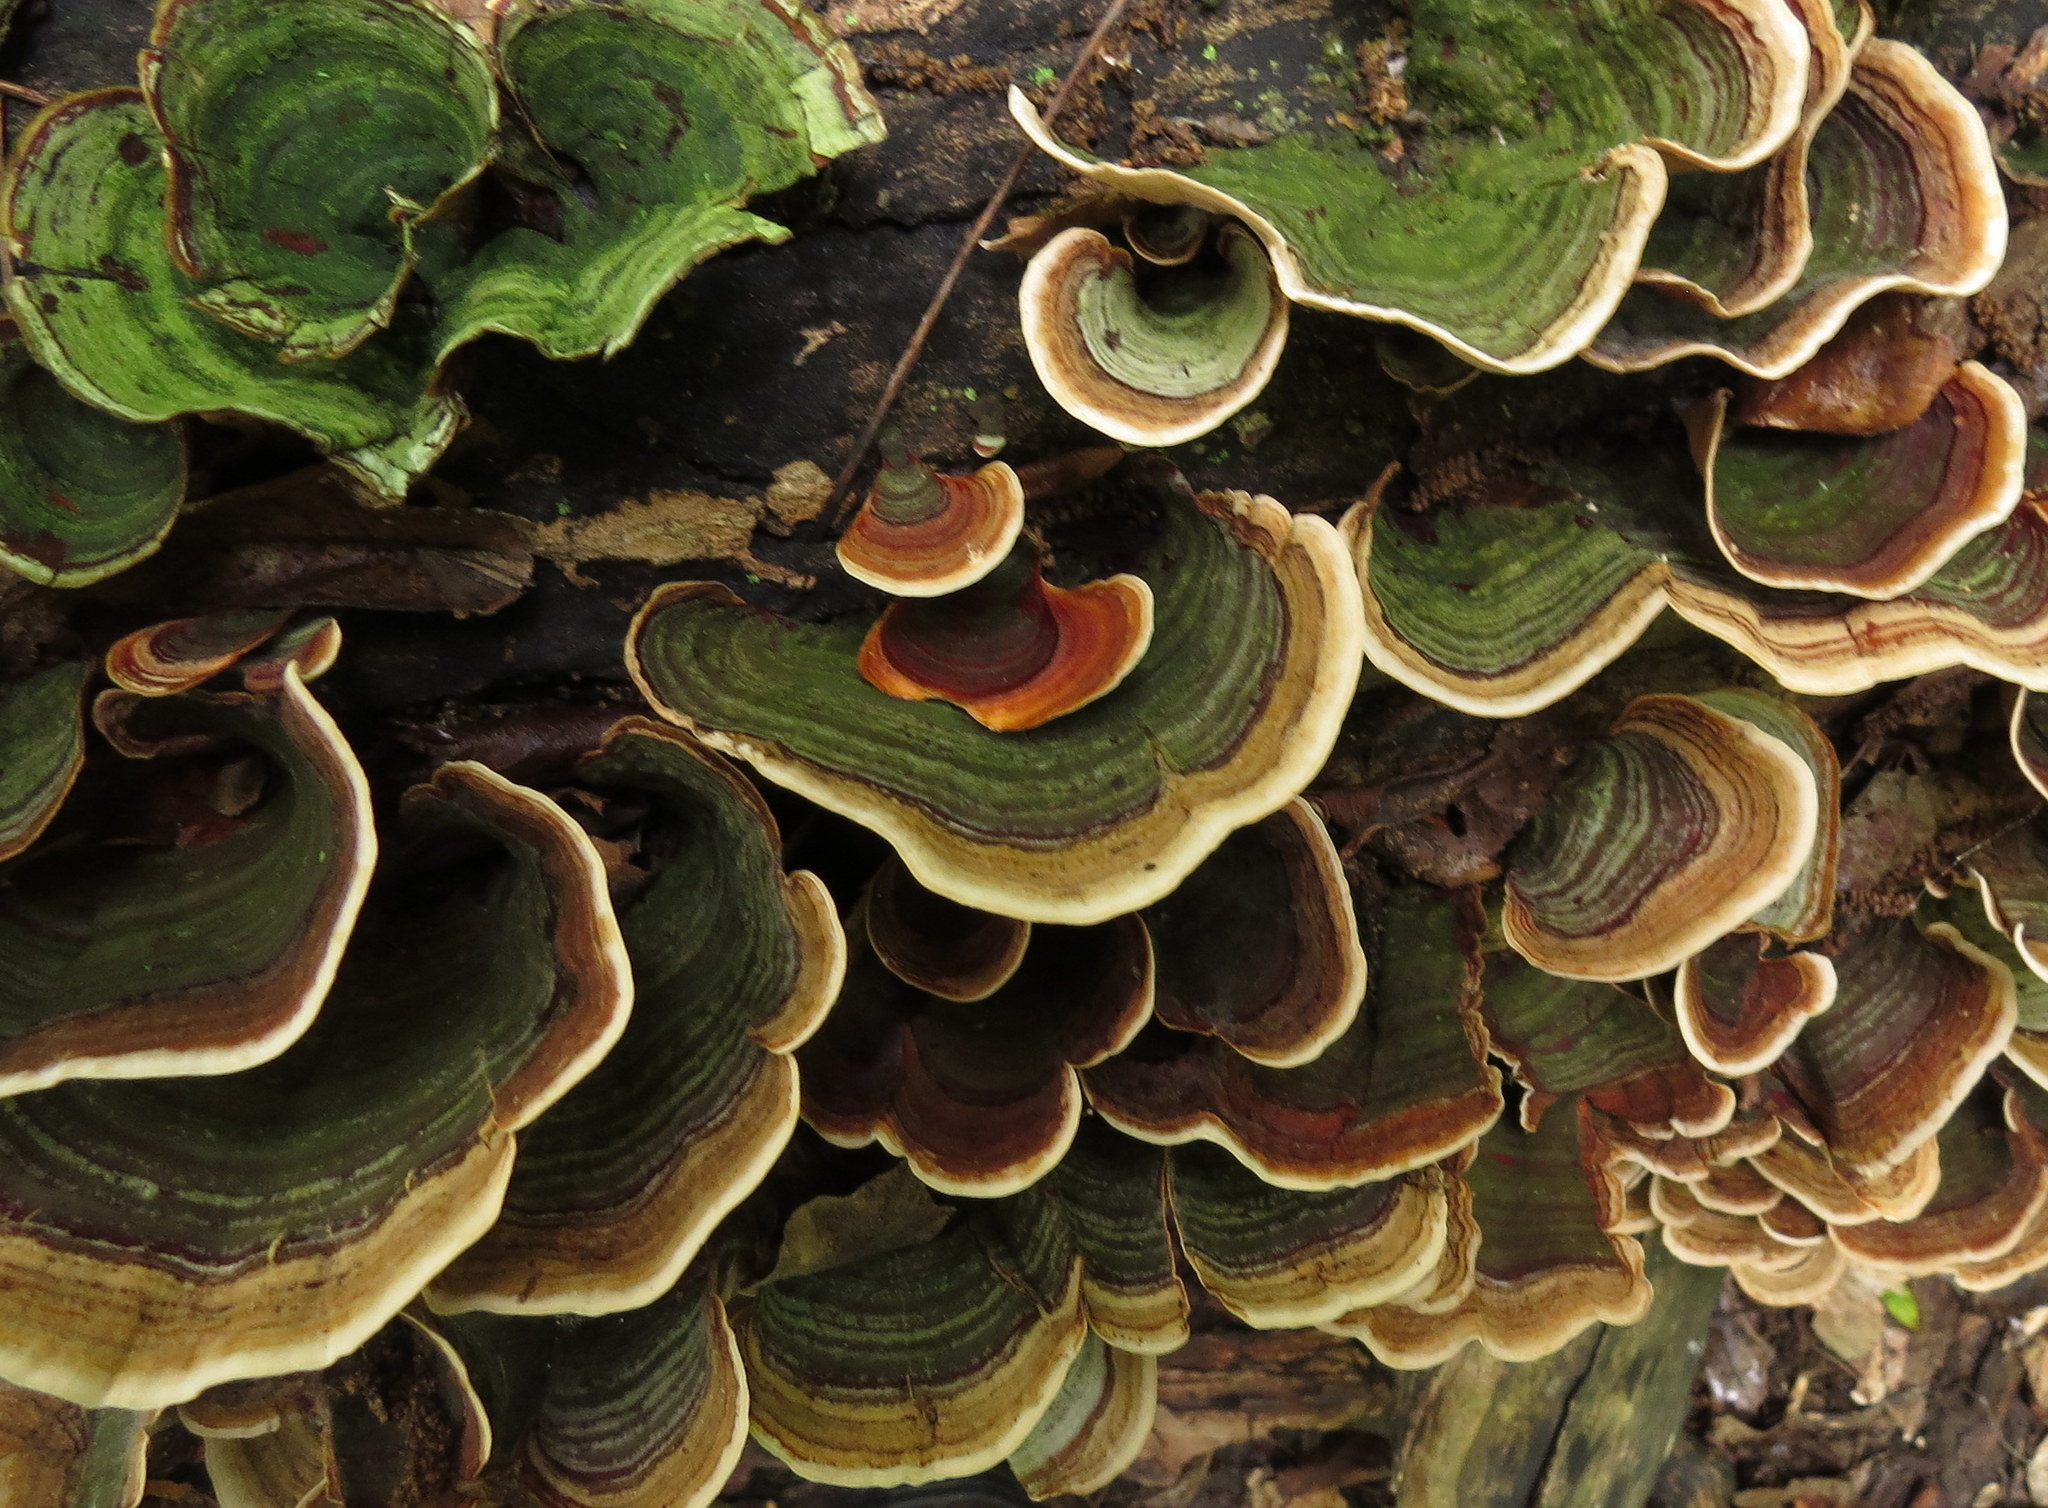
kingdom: Fungi
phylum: Basidiomycota
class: Agaricomycetes
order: Russulales
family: Stereaceae
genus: Stereum
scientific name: Stereum ostrea
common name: False turkeytail
